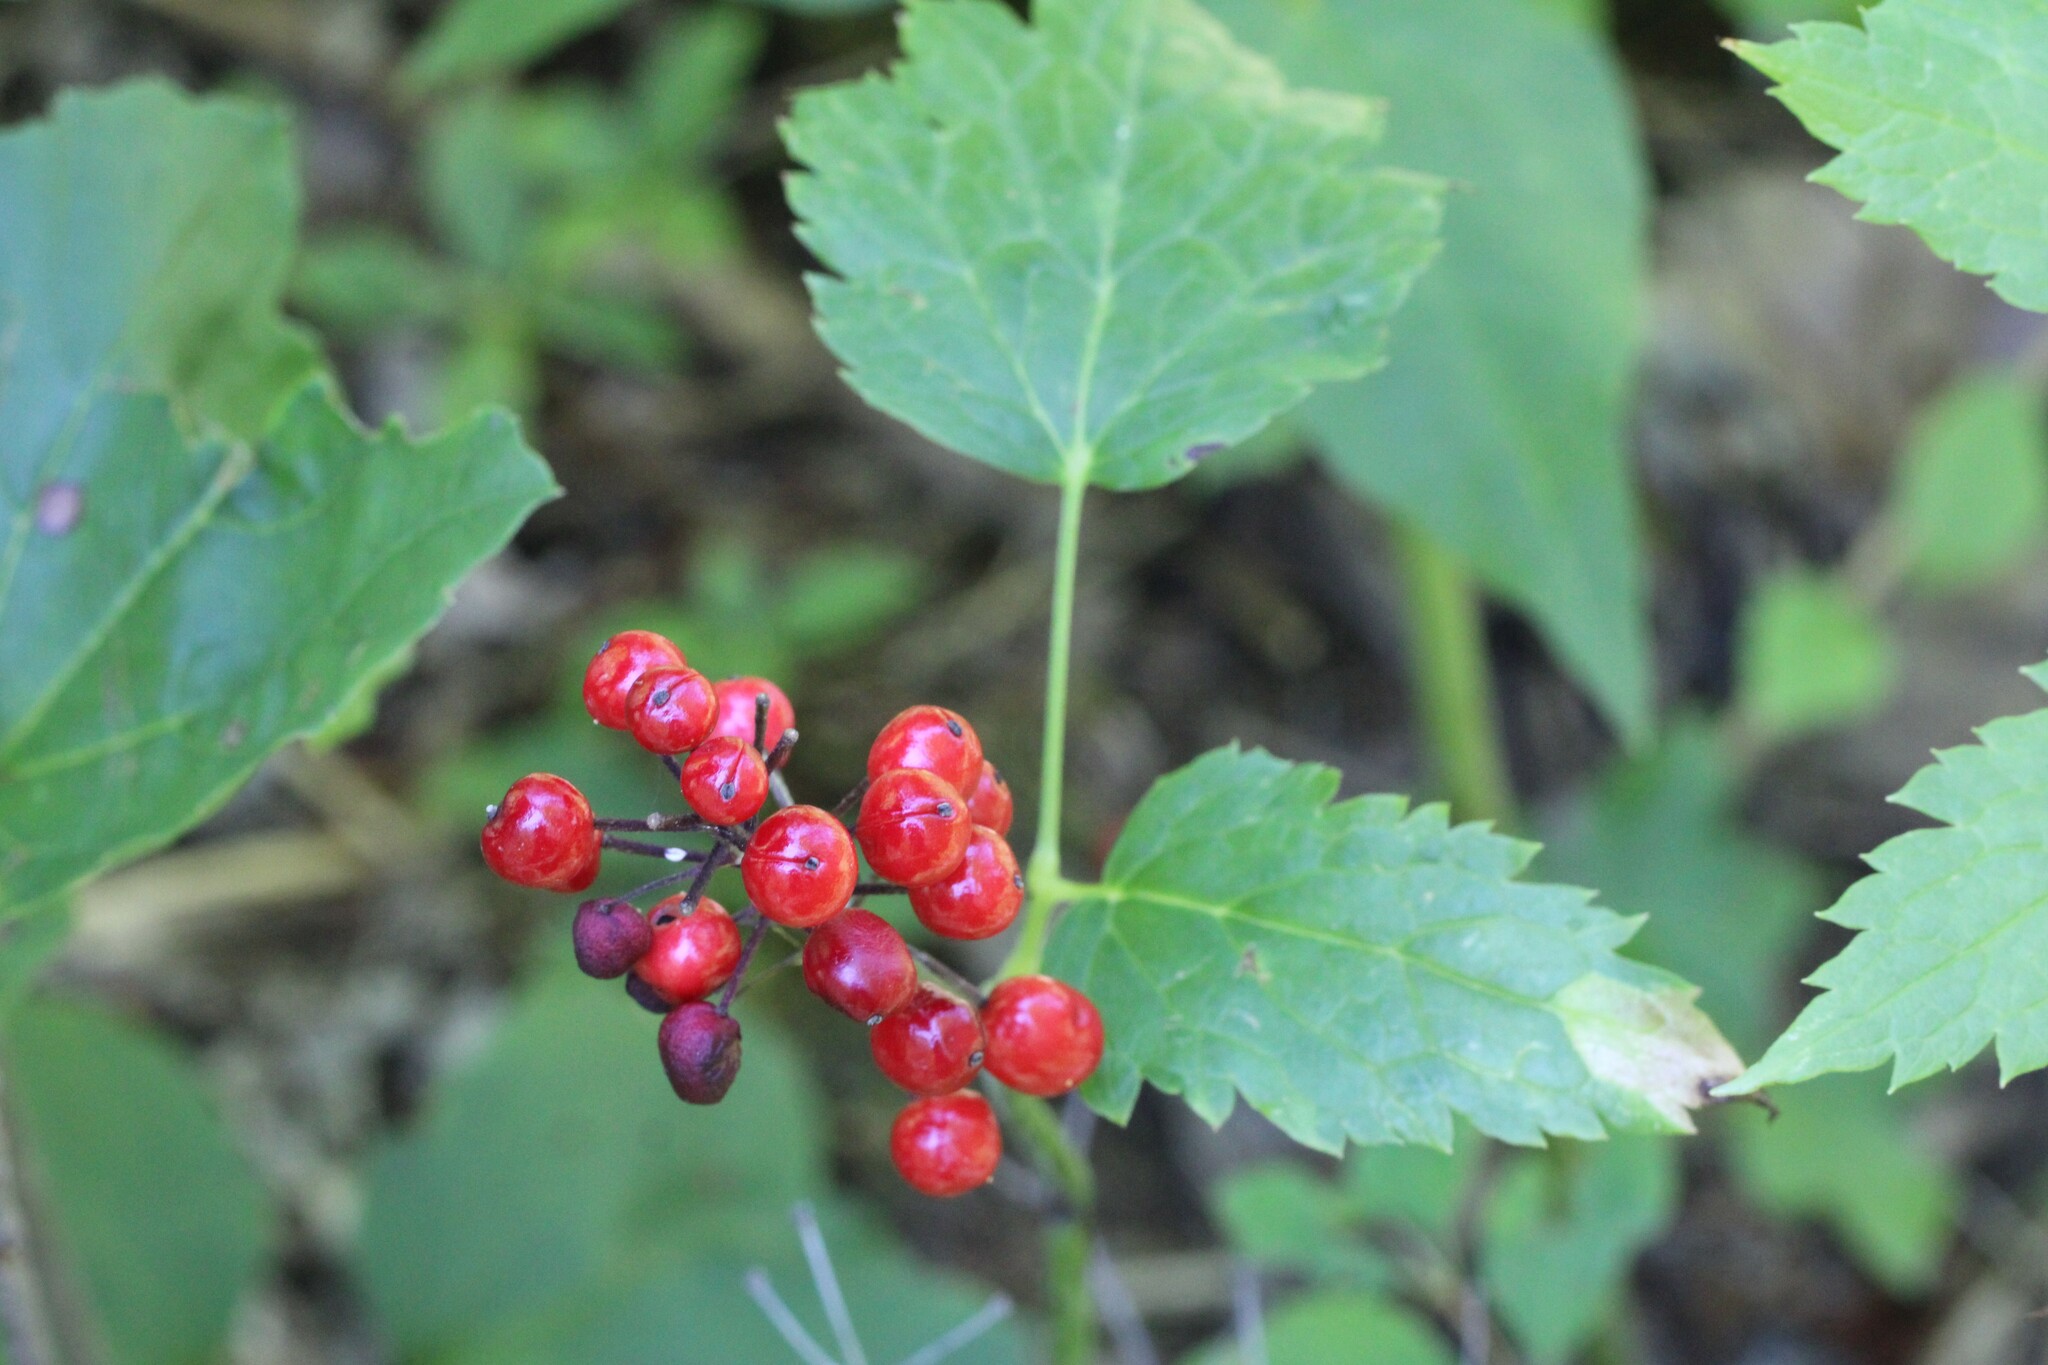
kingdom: Plantae
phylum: Tracheophyta
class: Magnoliopsida
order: Ranunculales
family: Ranunculaceae
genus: Actaea
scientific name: Actaea rubra
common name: Red baneberry
